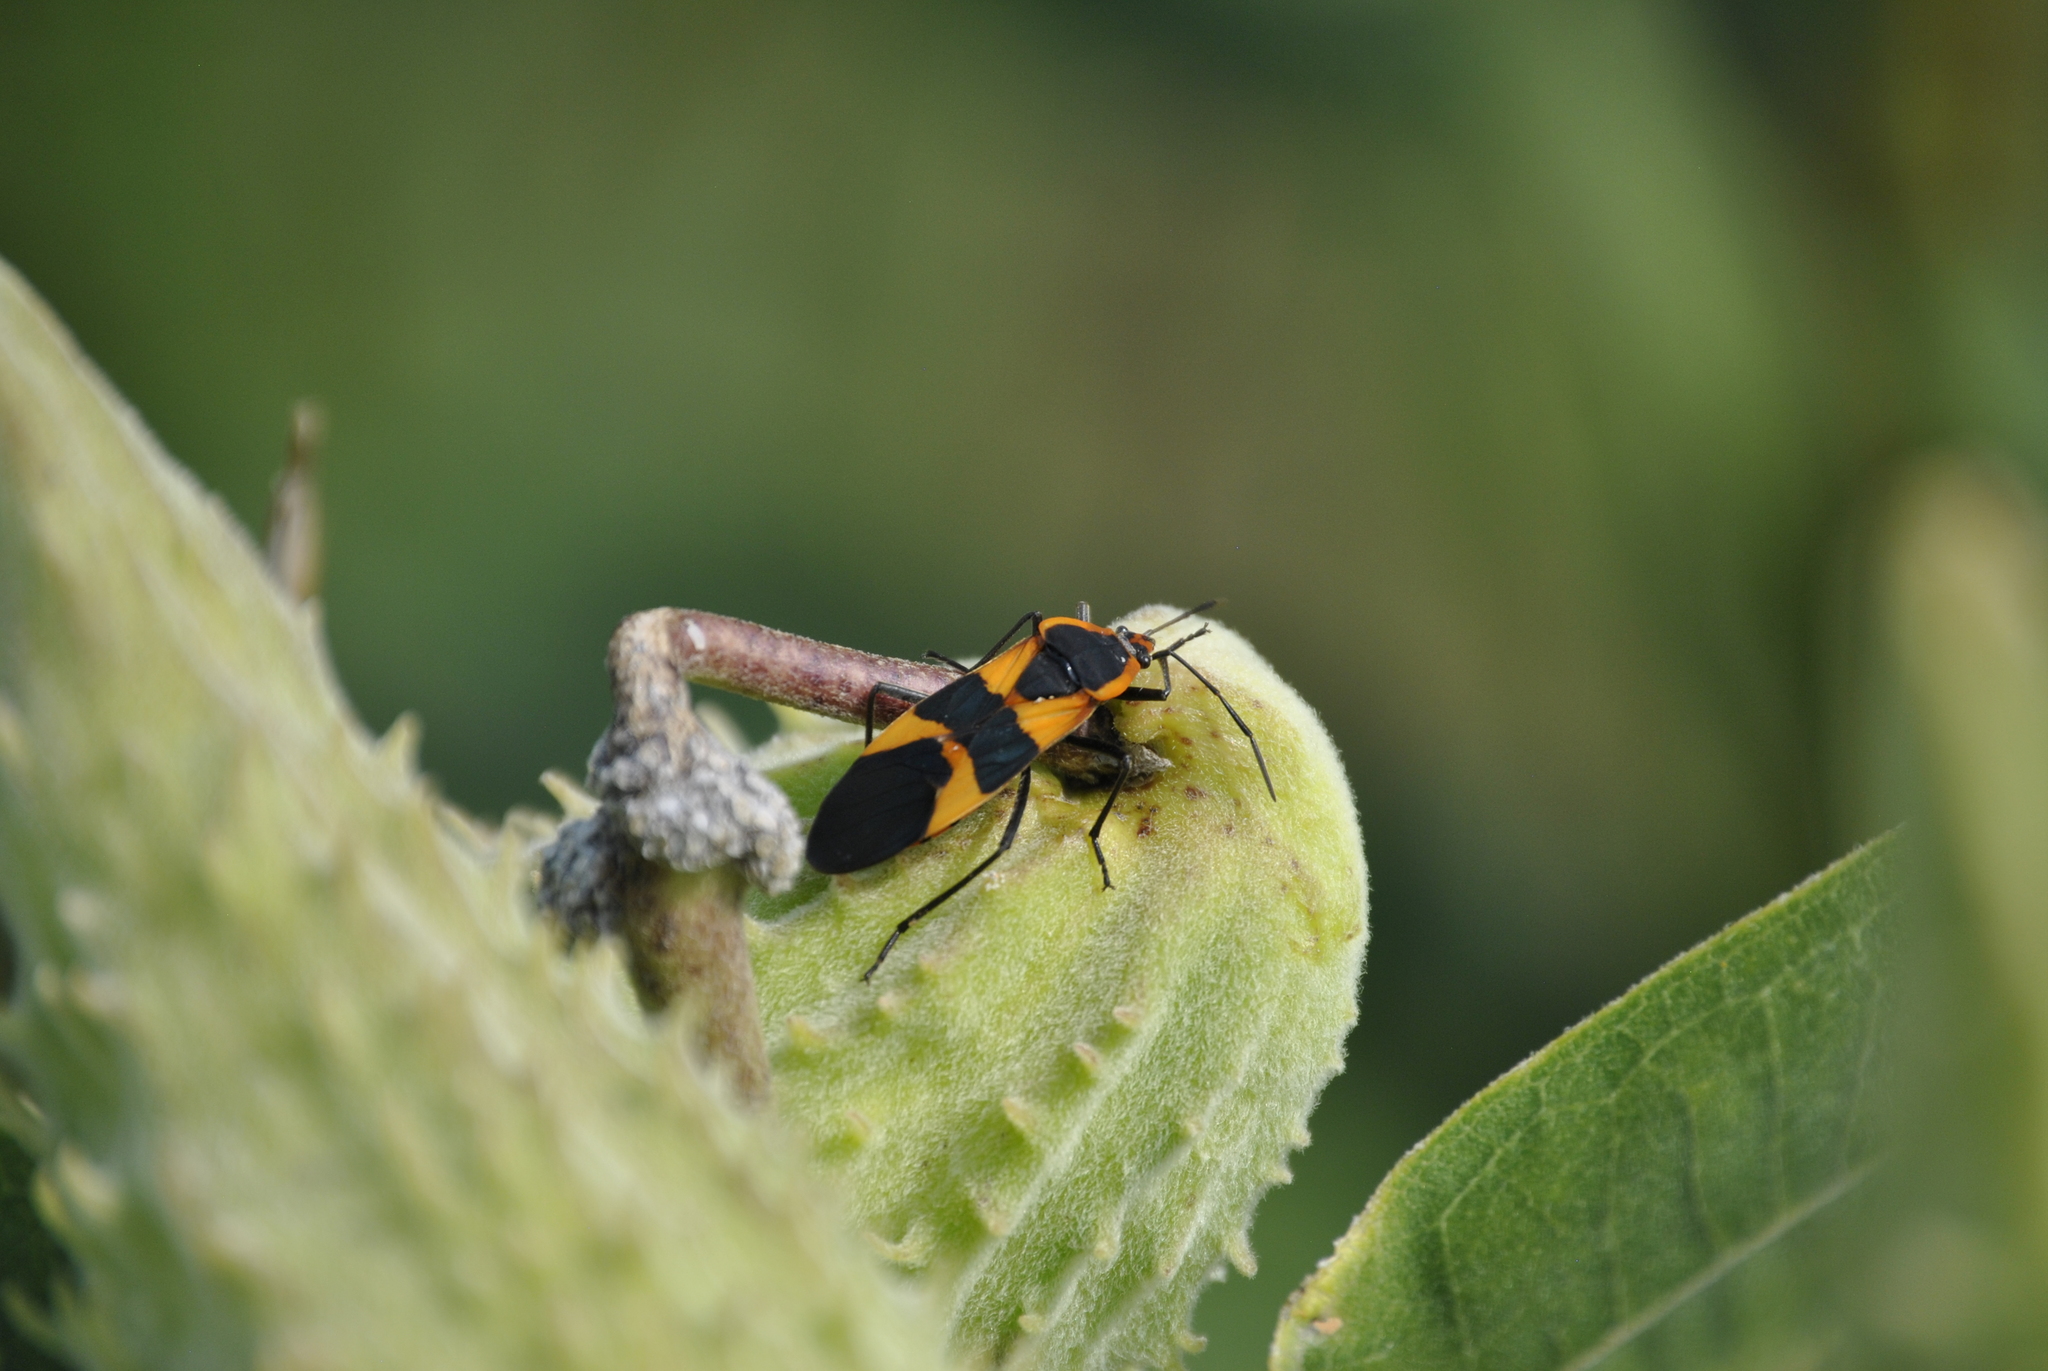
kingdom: Animalia
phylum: Arthropoda
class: Insecta
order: Hemiptera
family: Lygaeidae
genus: Oncopeltus
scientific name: Oncopeltus fasciatus
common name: Large milkweed bug
